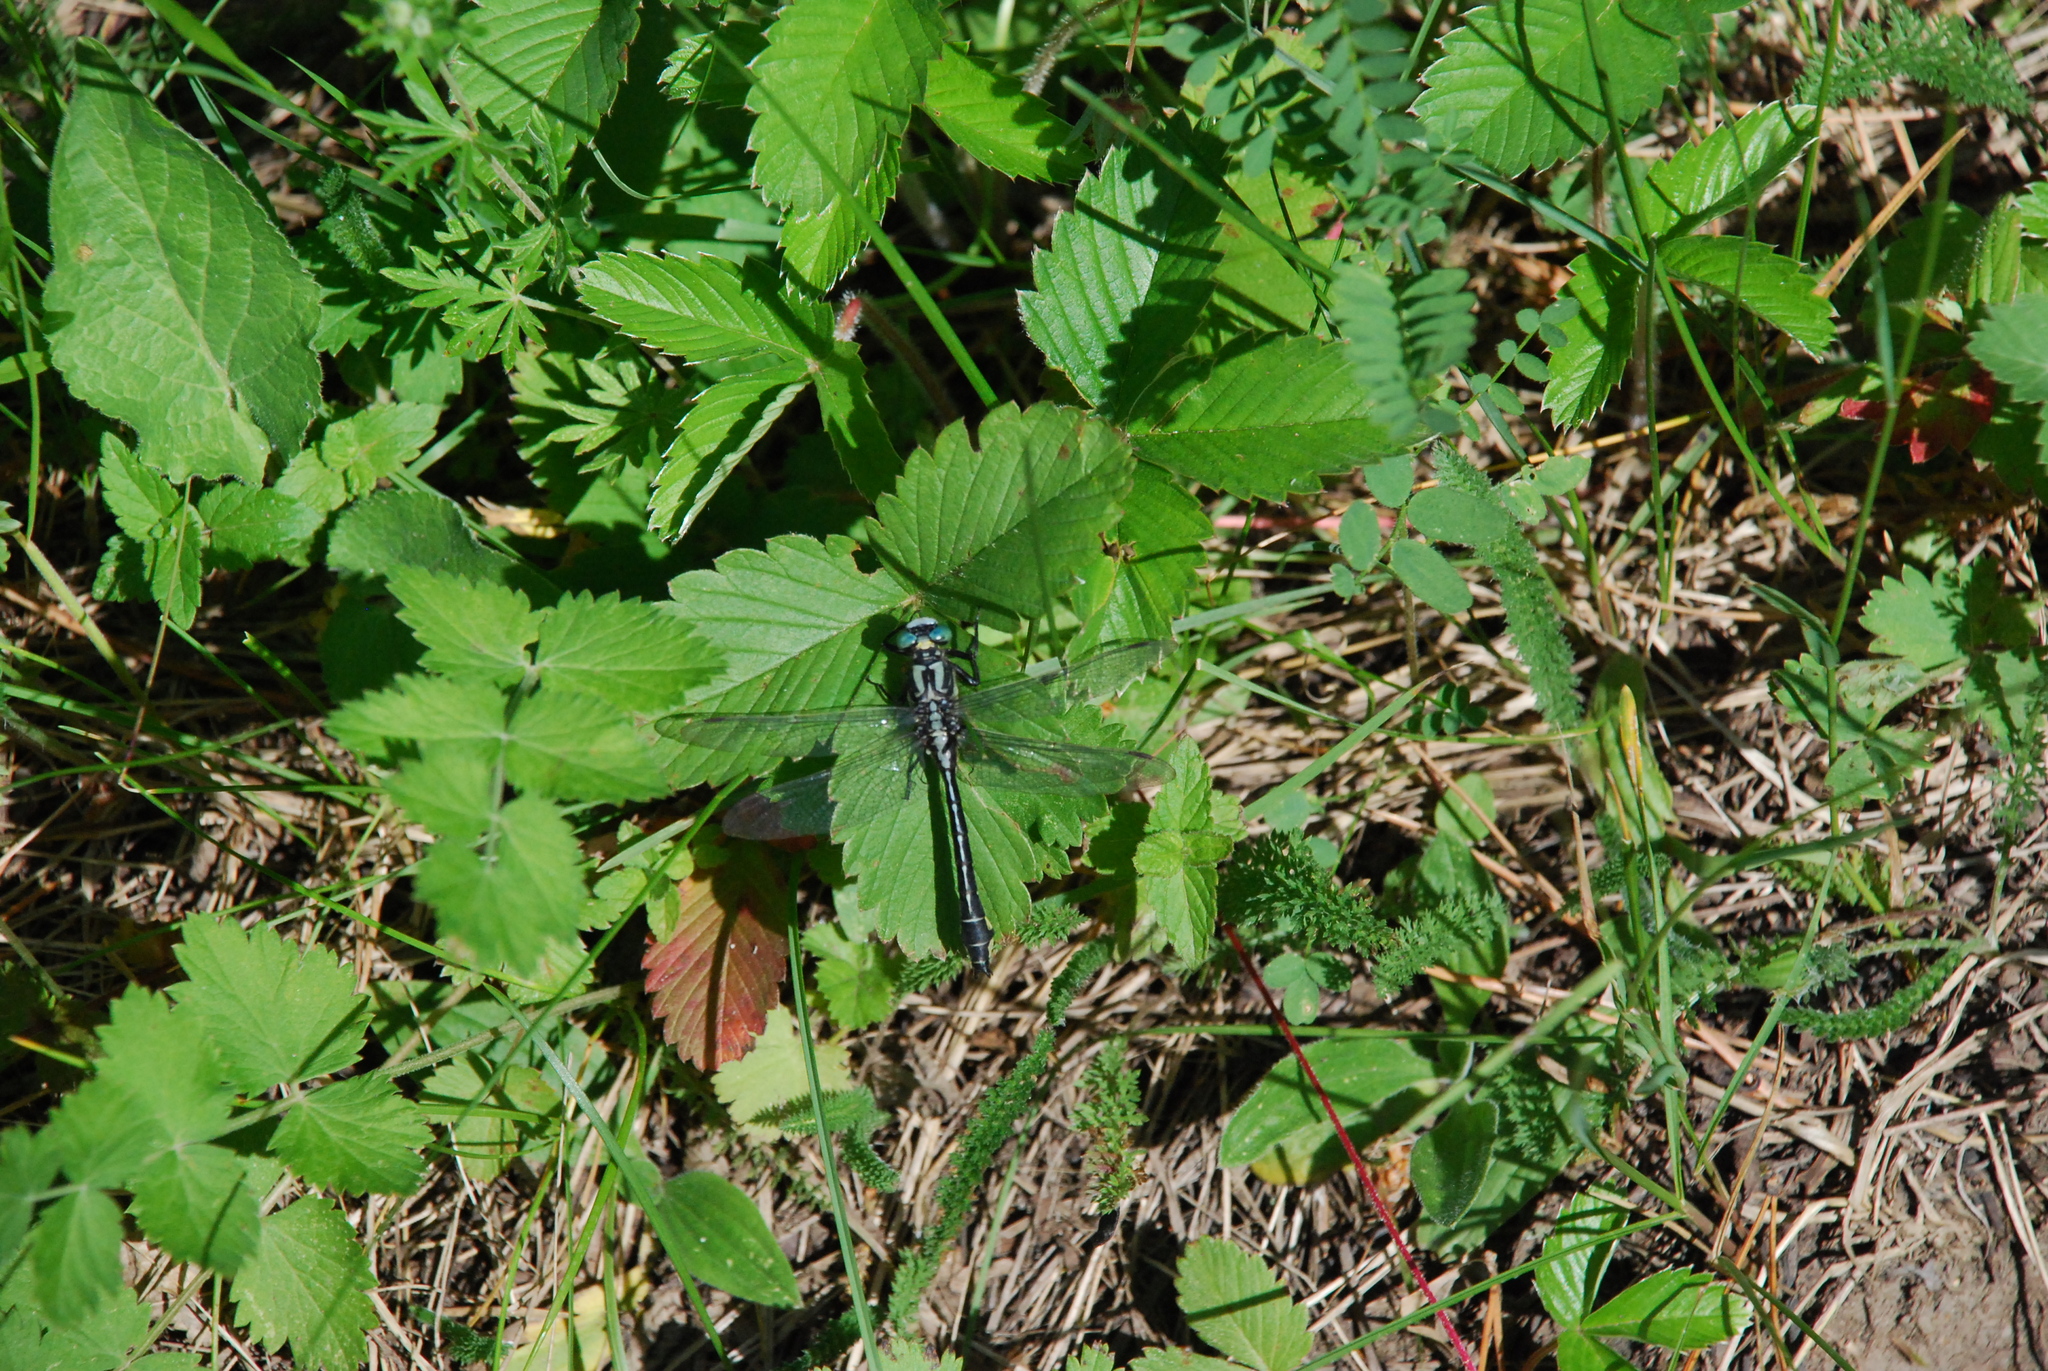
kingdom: Animalia
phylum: Arthropoda
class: Insecta
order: Odonata
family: Gomphidae
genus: Gomphus
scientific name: Gomphus vulgatissimus
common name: Club-tailed dragonfly
